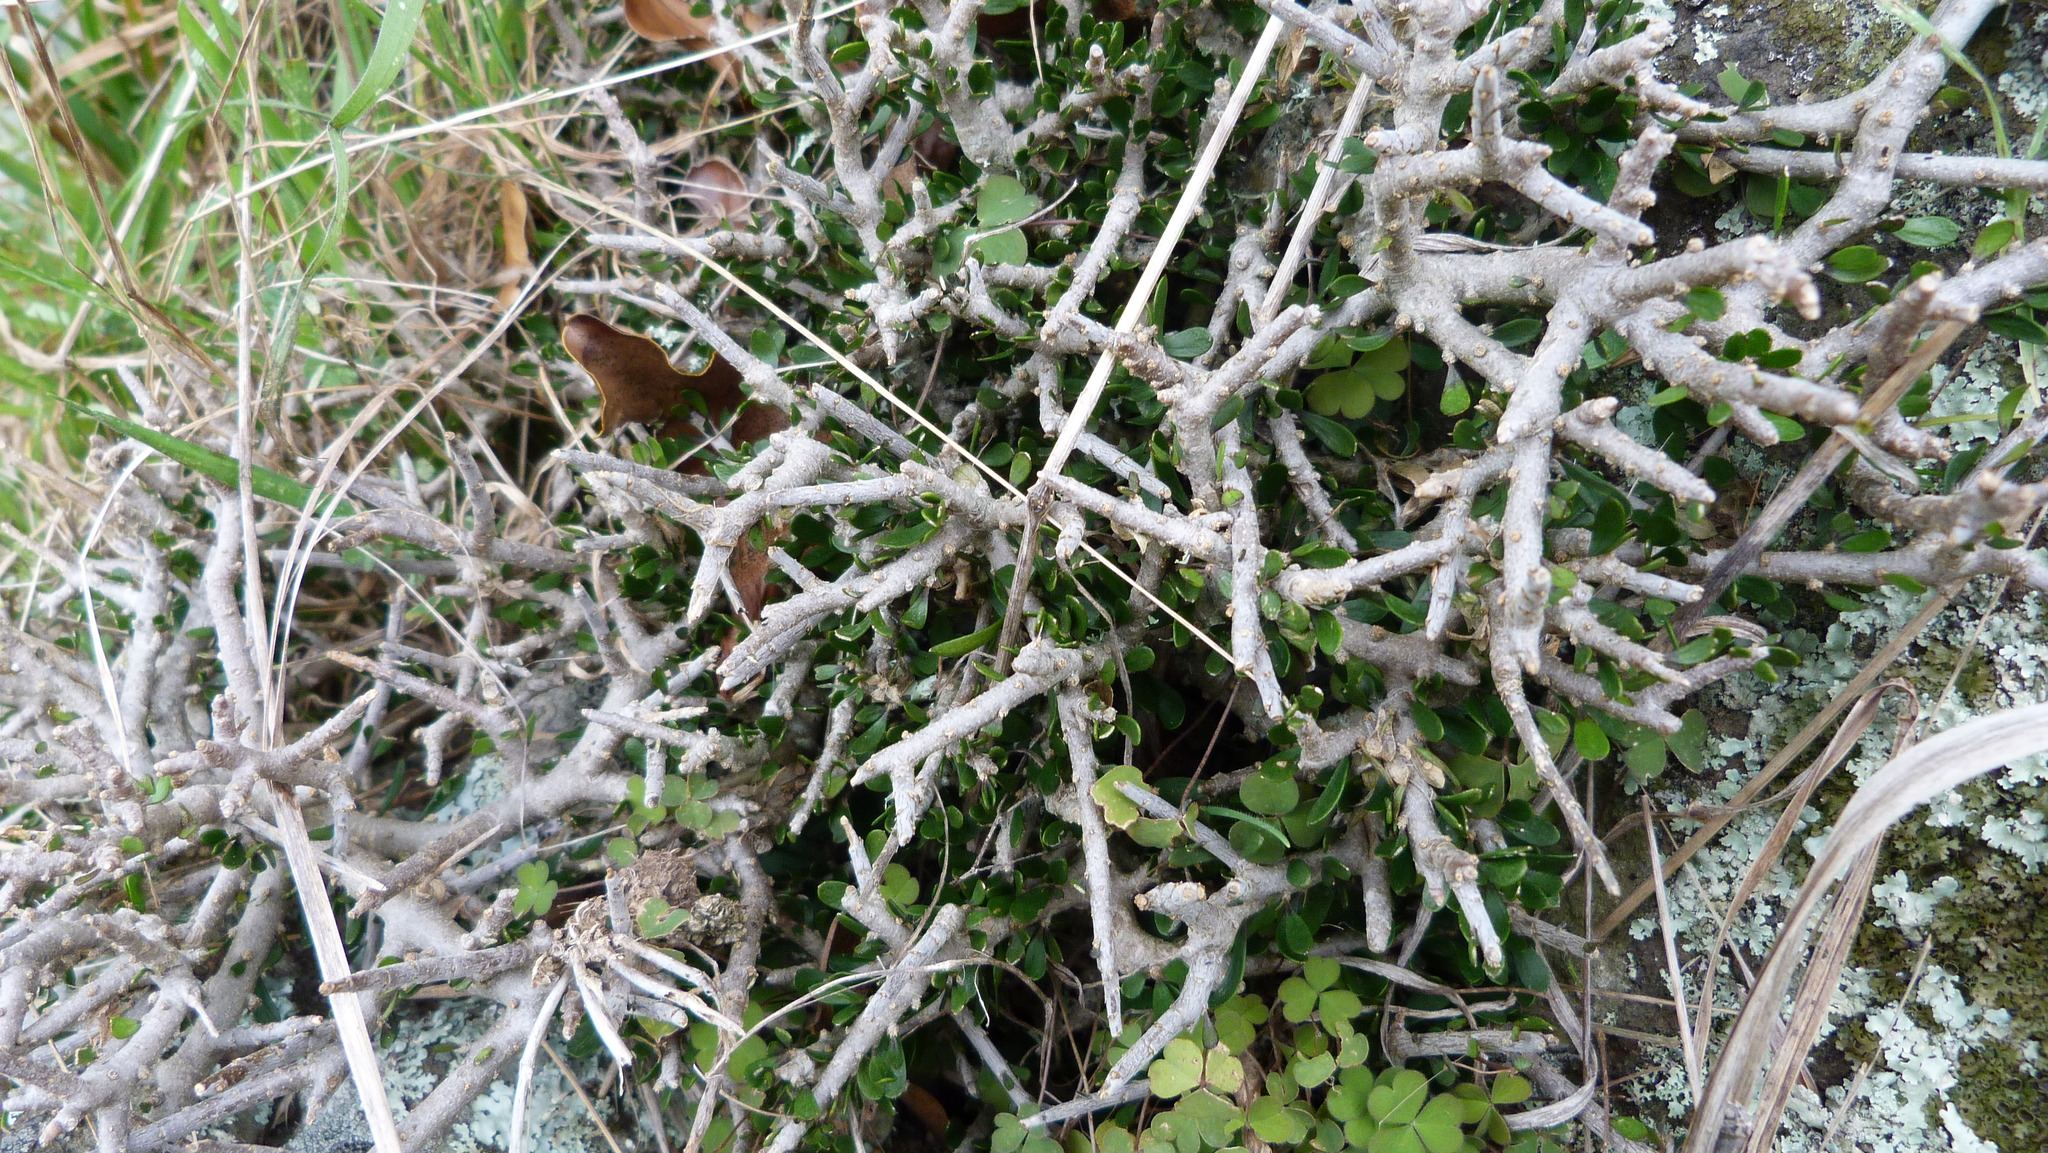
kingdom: Plantae
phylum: Tracheophyta
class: Magnoliopsida
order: Malpighiales
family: Violaceae
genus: Melicytus
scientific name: Melicytus alpinus
